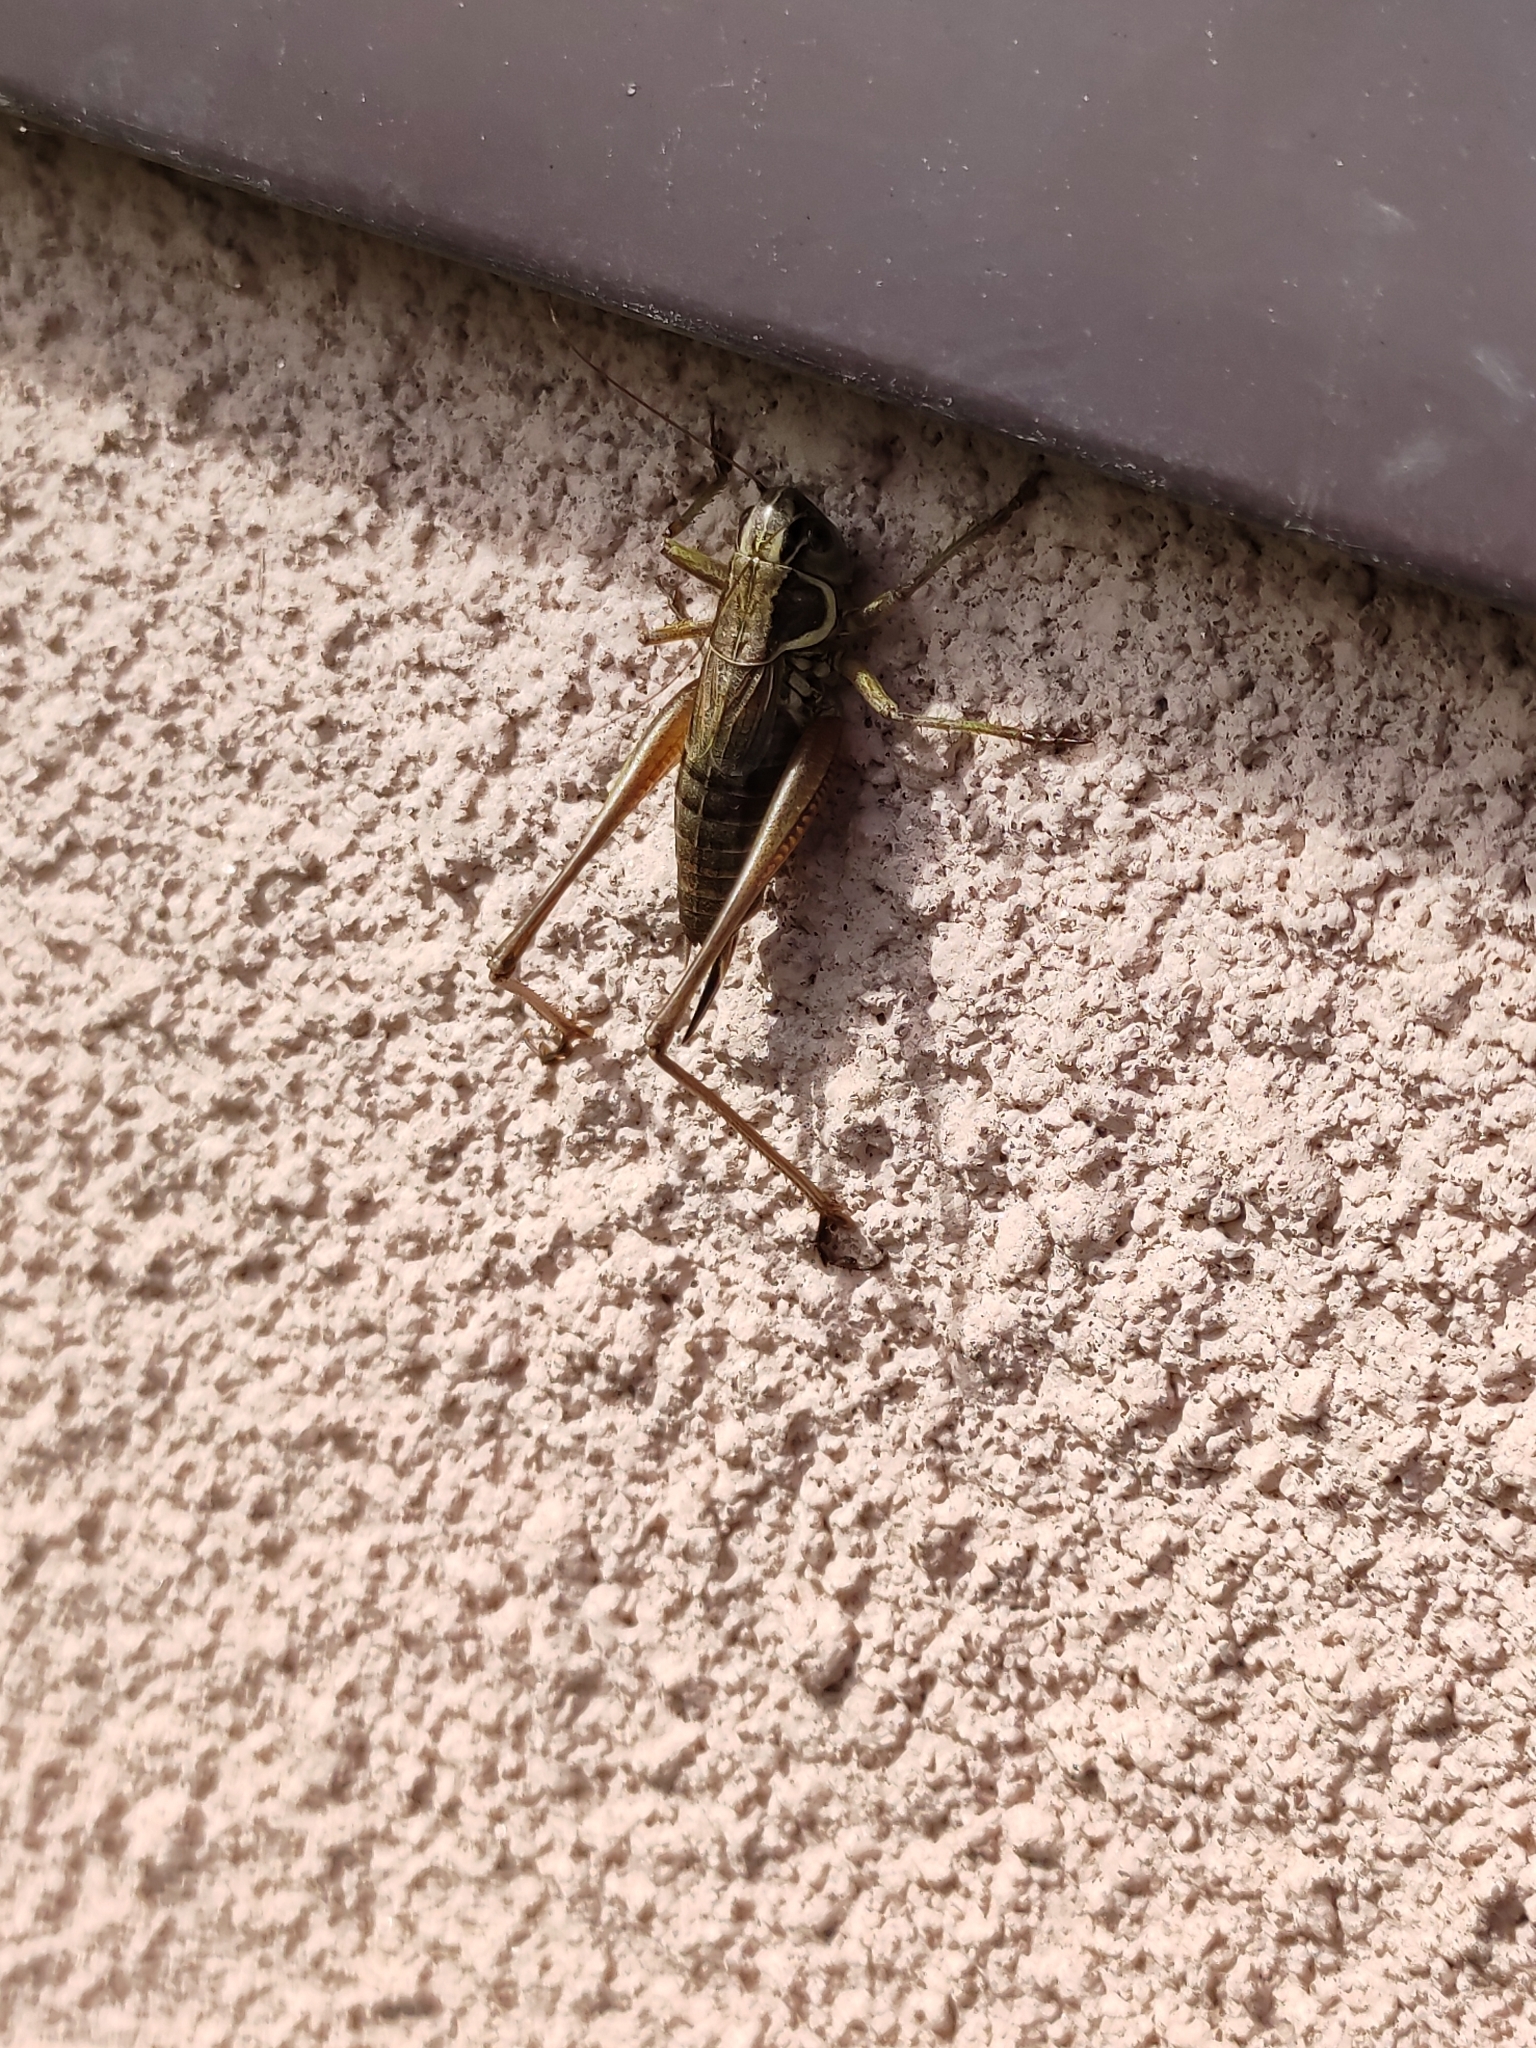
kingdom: Animalia
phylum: Arthropoda
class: Insecta
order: Orthoptera
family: Tettigoniidae
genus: Roeseliana
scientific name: Roeseliana roeselii
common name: Roesel's bush cricket
